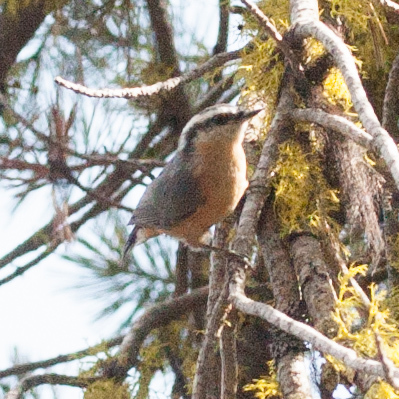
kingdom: Animalia
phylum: Chordata
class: Aves
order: Passeriformes
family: Sittidae
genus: Sitta
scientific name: Sitta canadensis
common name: Red-breasted nuthatch
